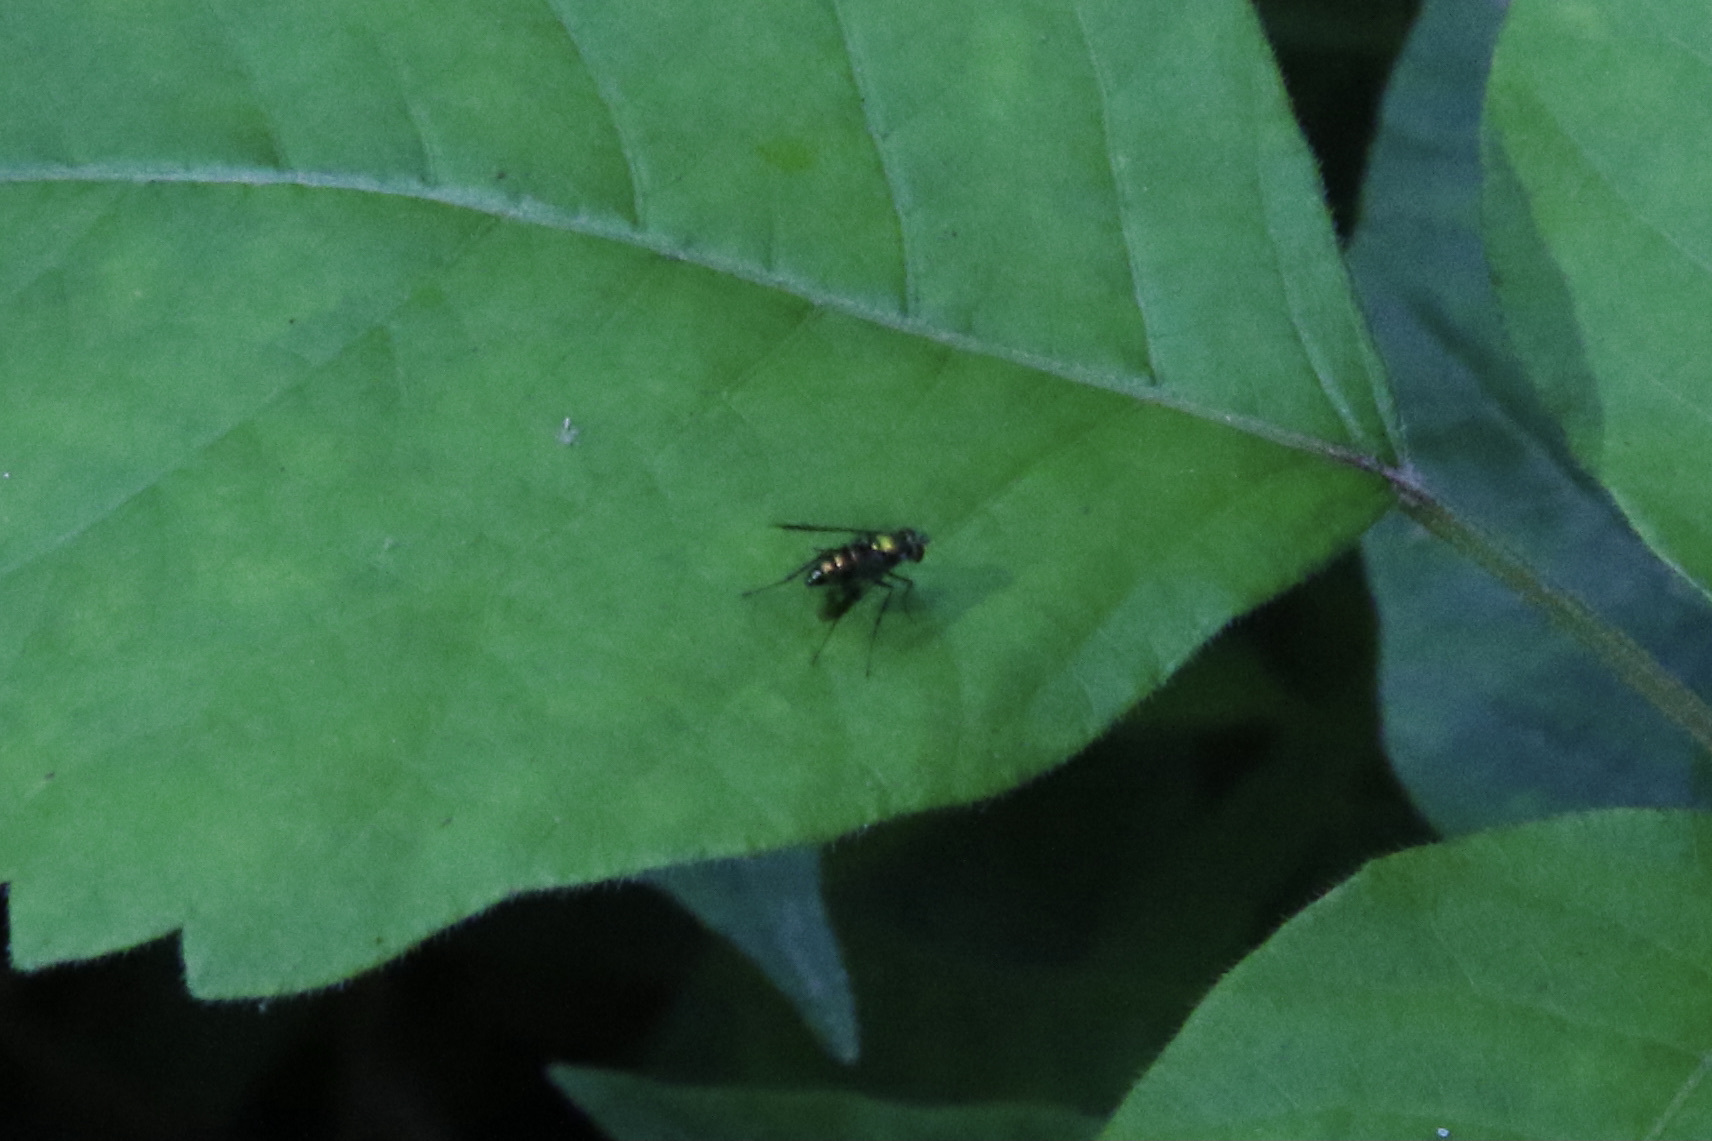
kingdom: Animalia
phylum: Arthropoda
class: Insecta
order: Diptera
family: Dolichopodidae
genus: Condylostylus
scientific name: Condylostylus patibulatus
